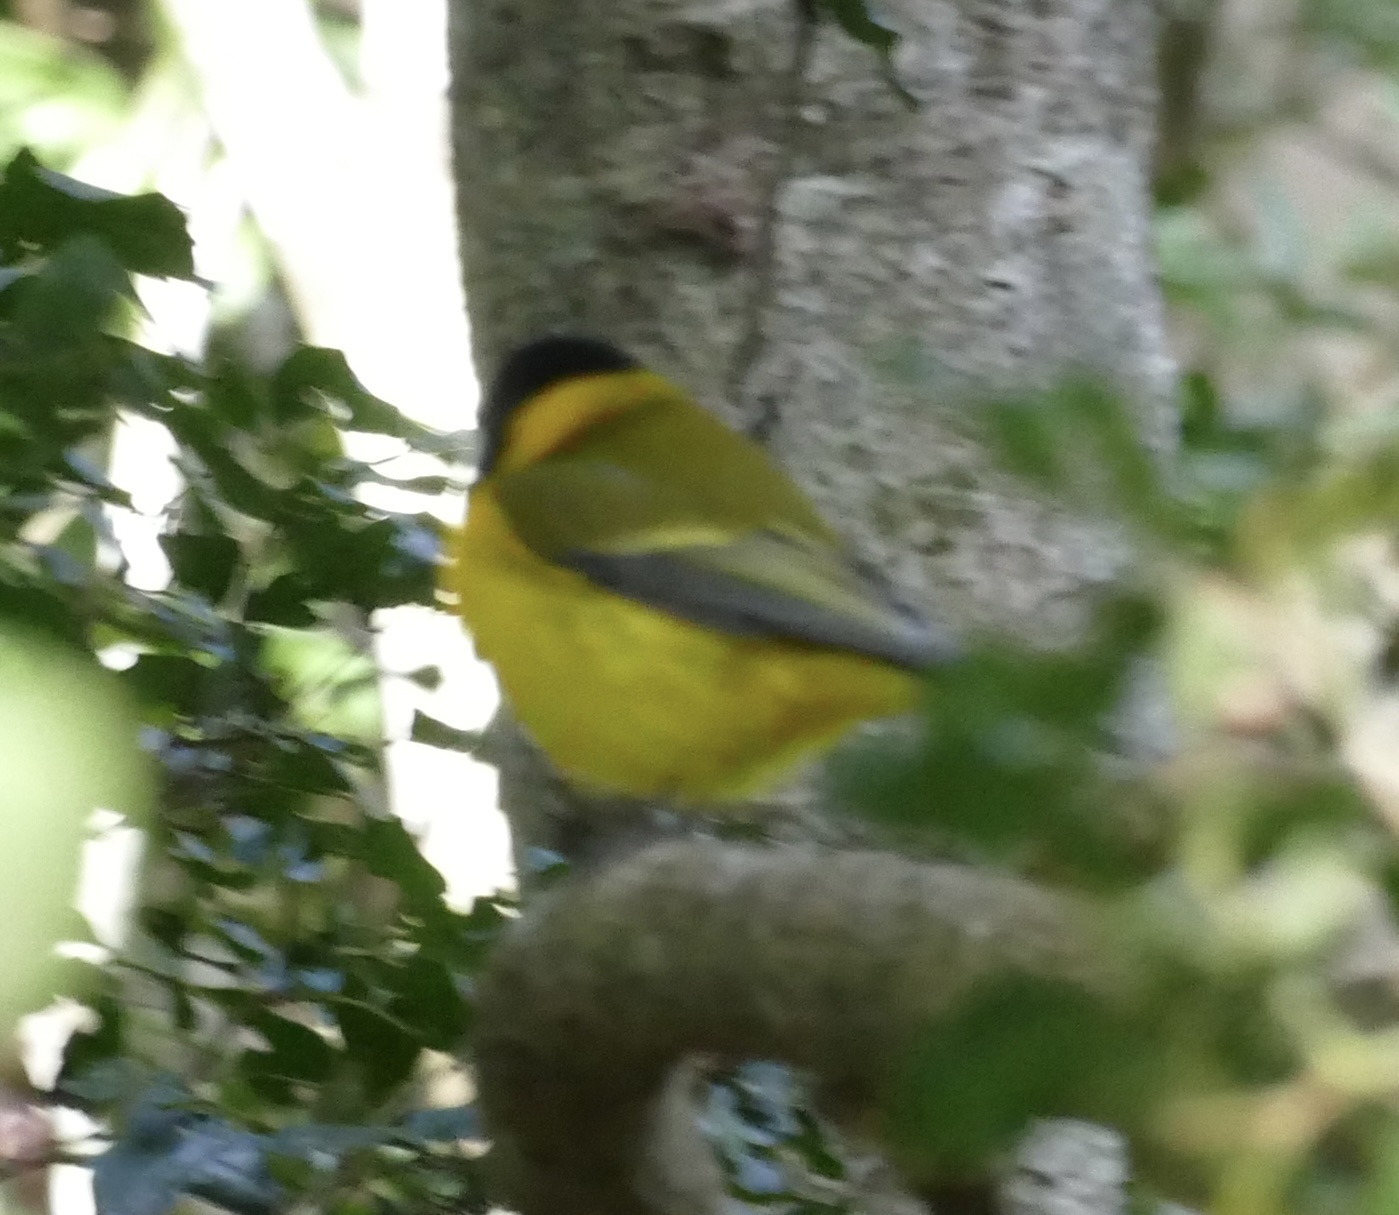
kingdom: Animalia
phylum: Chordata
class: Aves
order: Passeriformes
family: Pachycephalidae
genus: Pachycephala
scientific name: Pachycephala pectoralis
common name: Australian golden whistler
